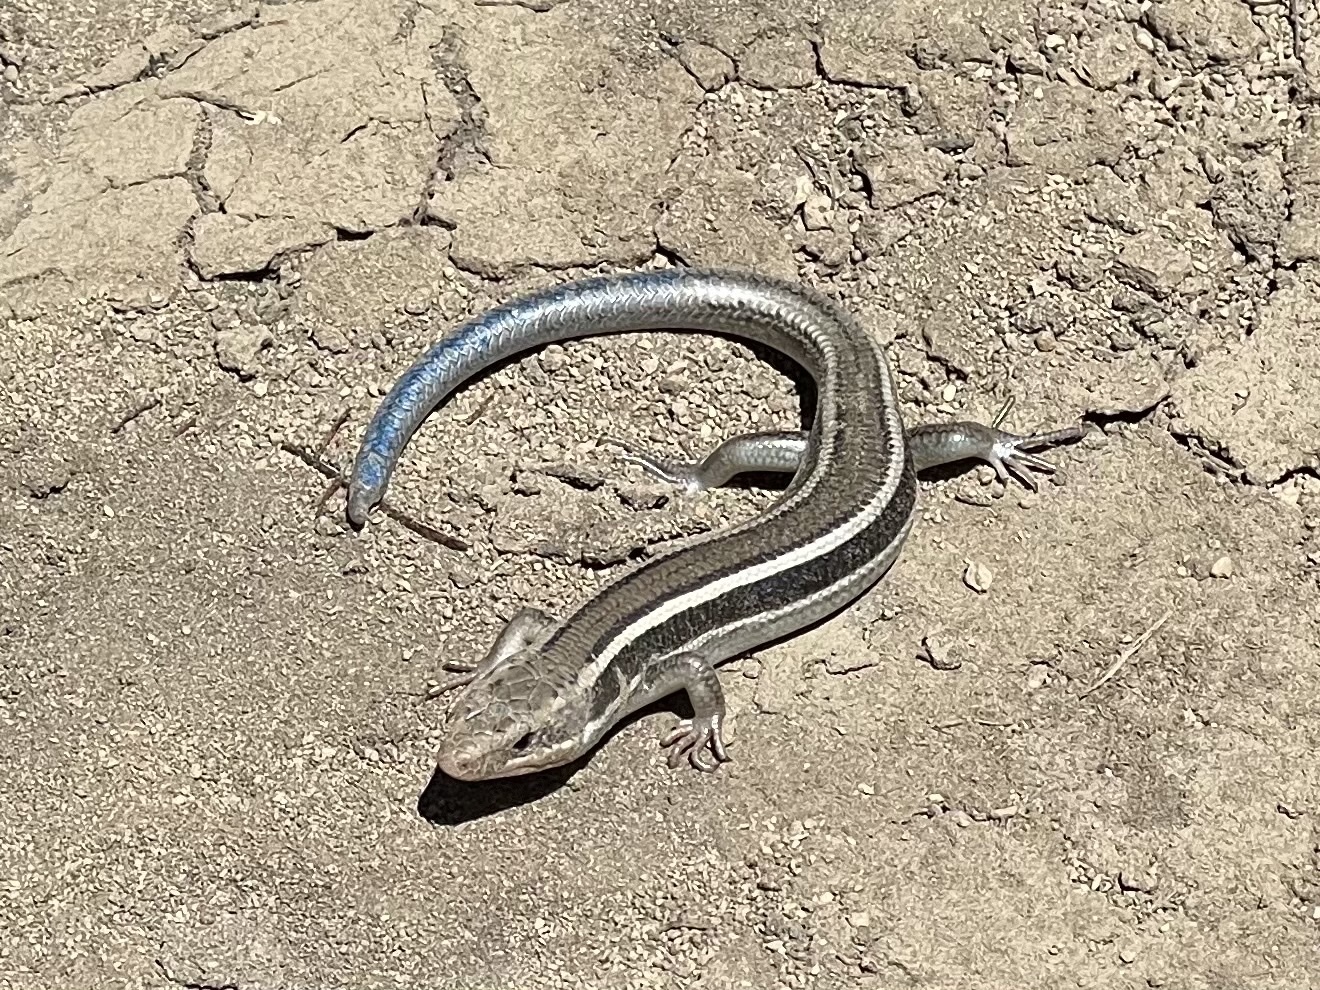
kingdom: Animalia
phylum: Chordata
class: Squamata
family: Scincidae
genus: Plestiodon
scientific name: Plestiodon skiltonianus
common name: Coronado island skink [interparietalis]
